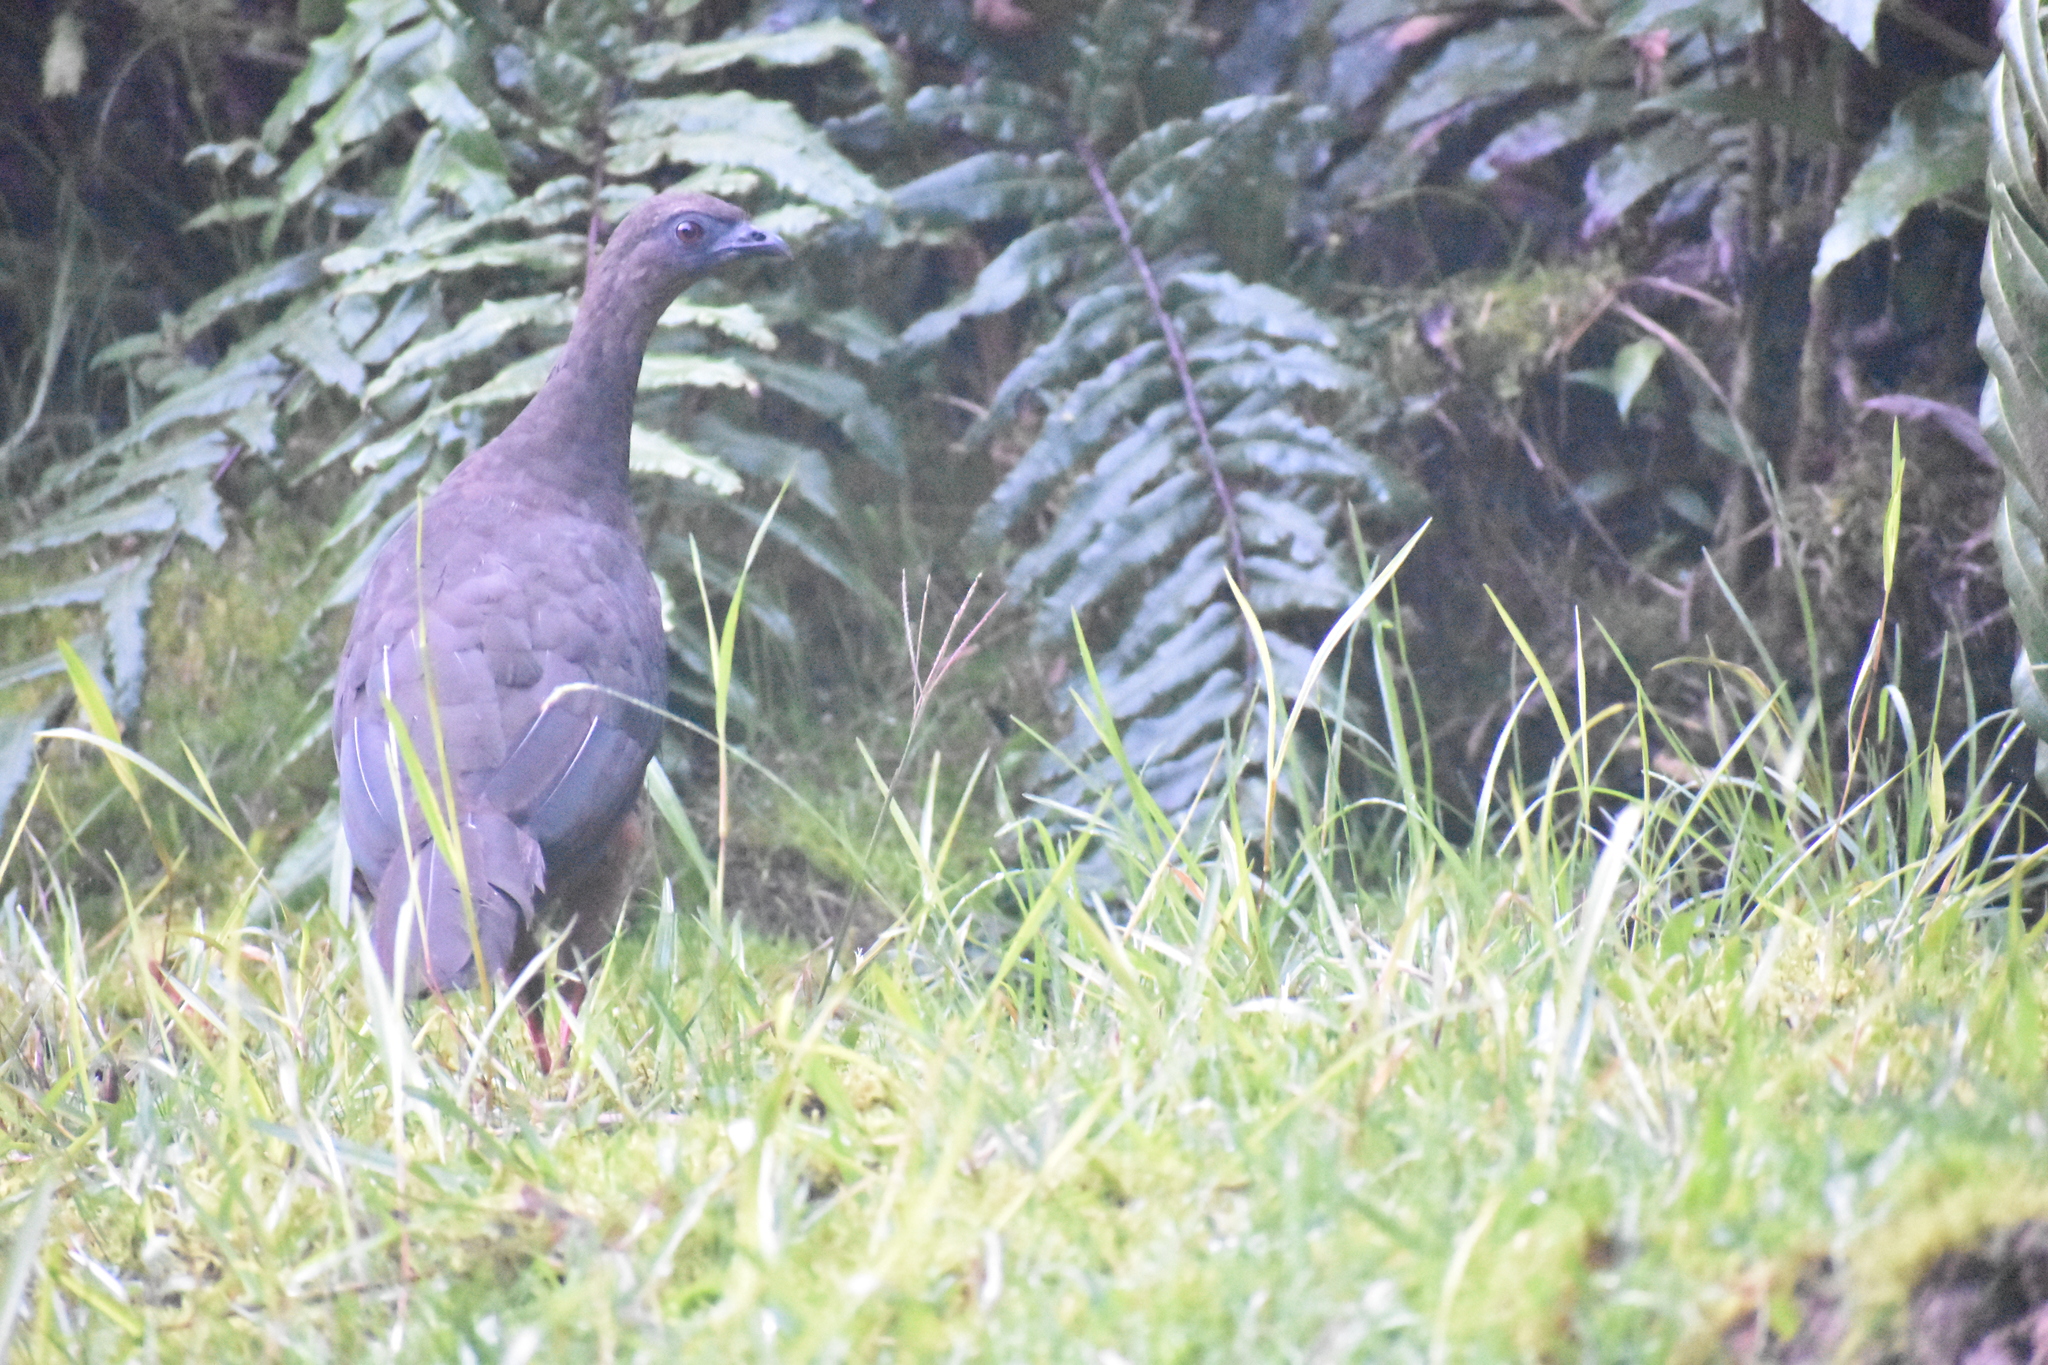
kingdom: Animalia
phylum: Chordata
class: Aves
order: Galliformes
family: Cracidae
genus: Chamaepetes
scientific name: Chamaepetes goudotii
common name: Sickle-winged guan
